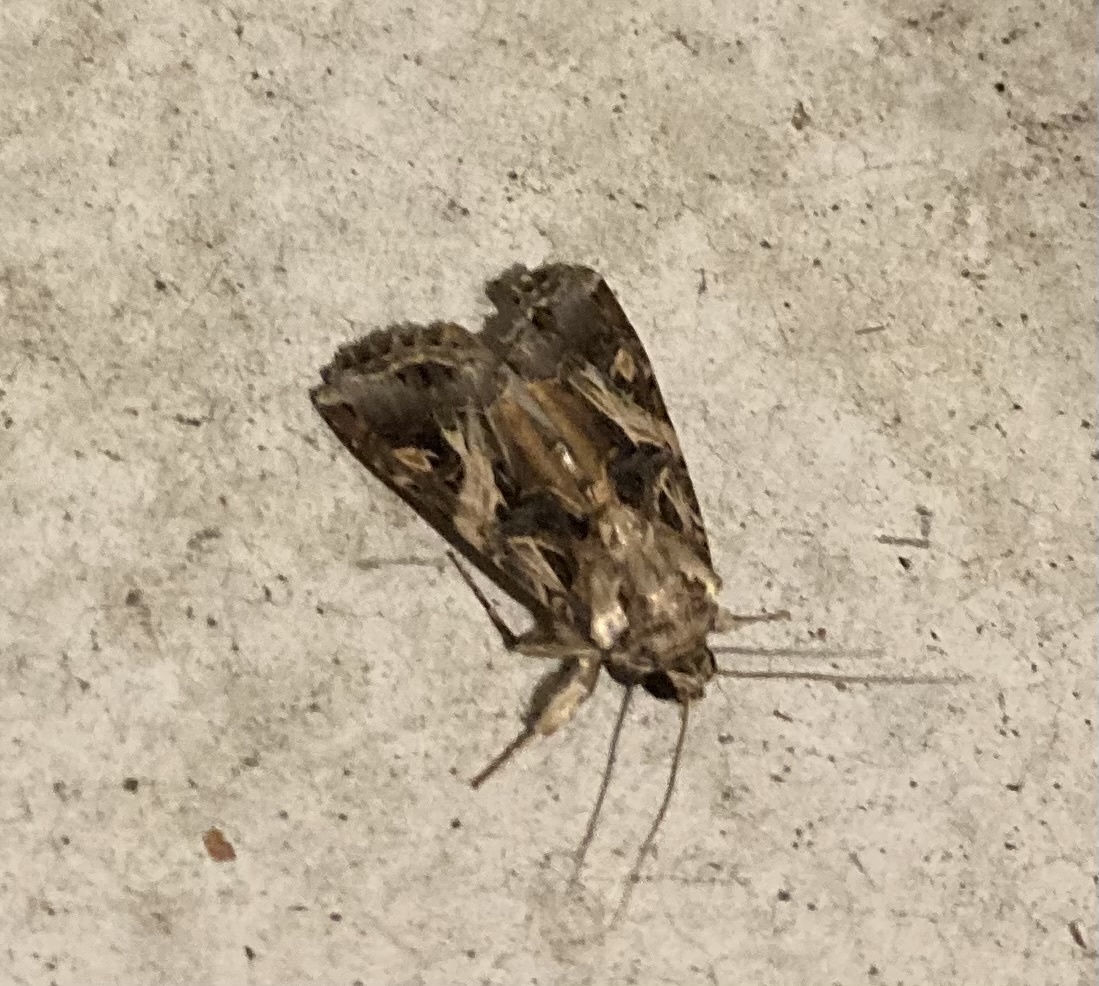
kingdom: Animalia
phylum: Arthropoda
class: Insecta
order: Lepidoptera
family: Noctuidae
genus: Spodoptera
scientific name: Spodoptera litura
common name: Asian cotton leafworm
